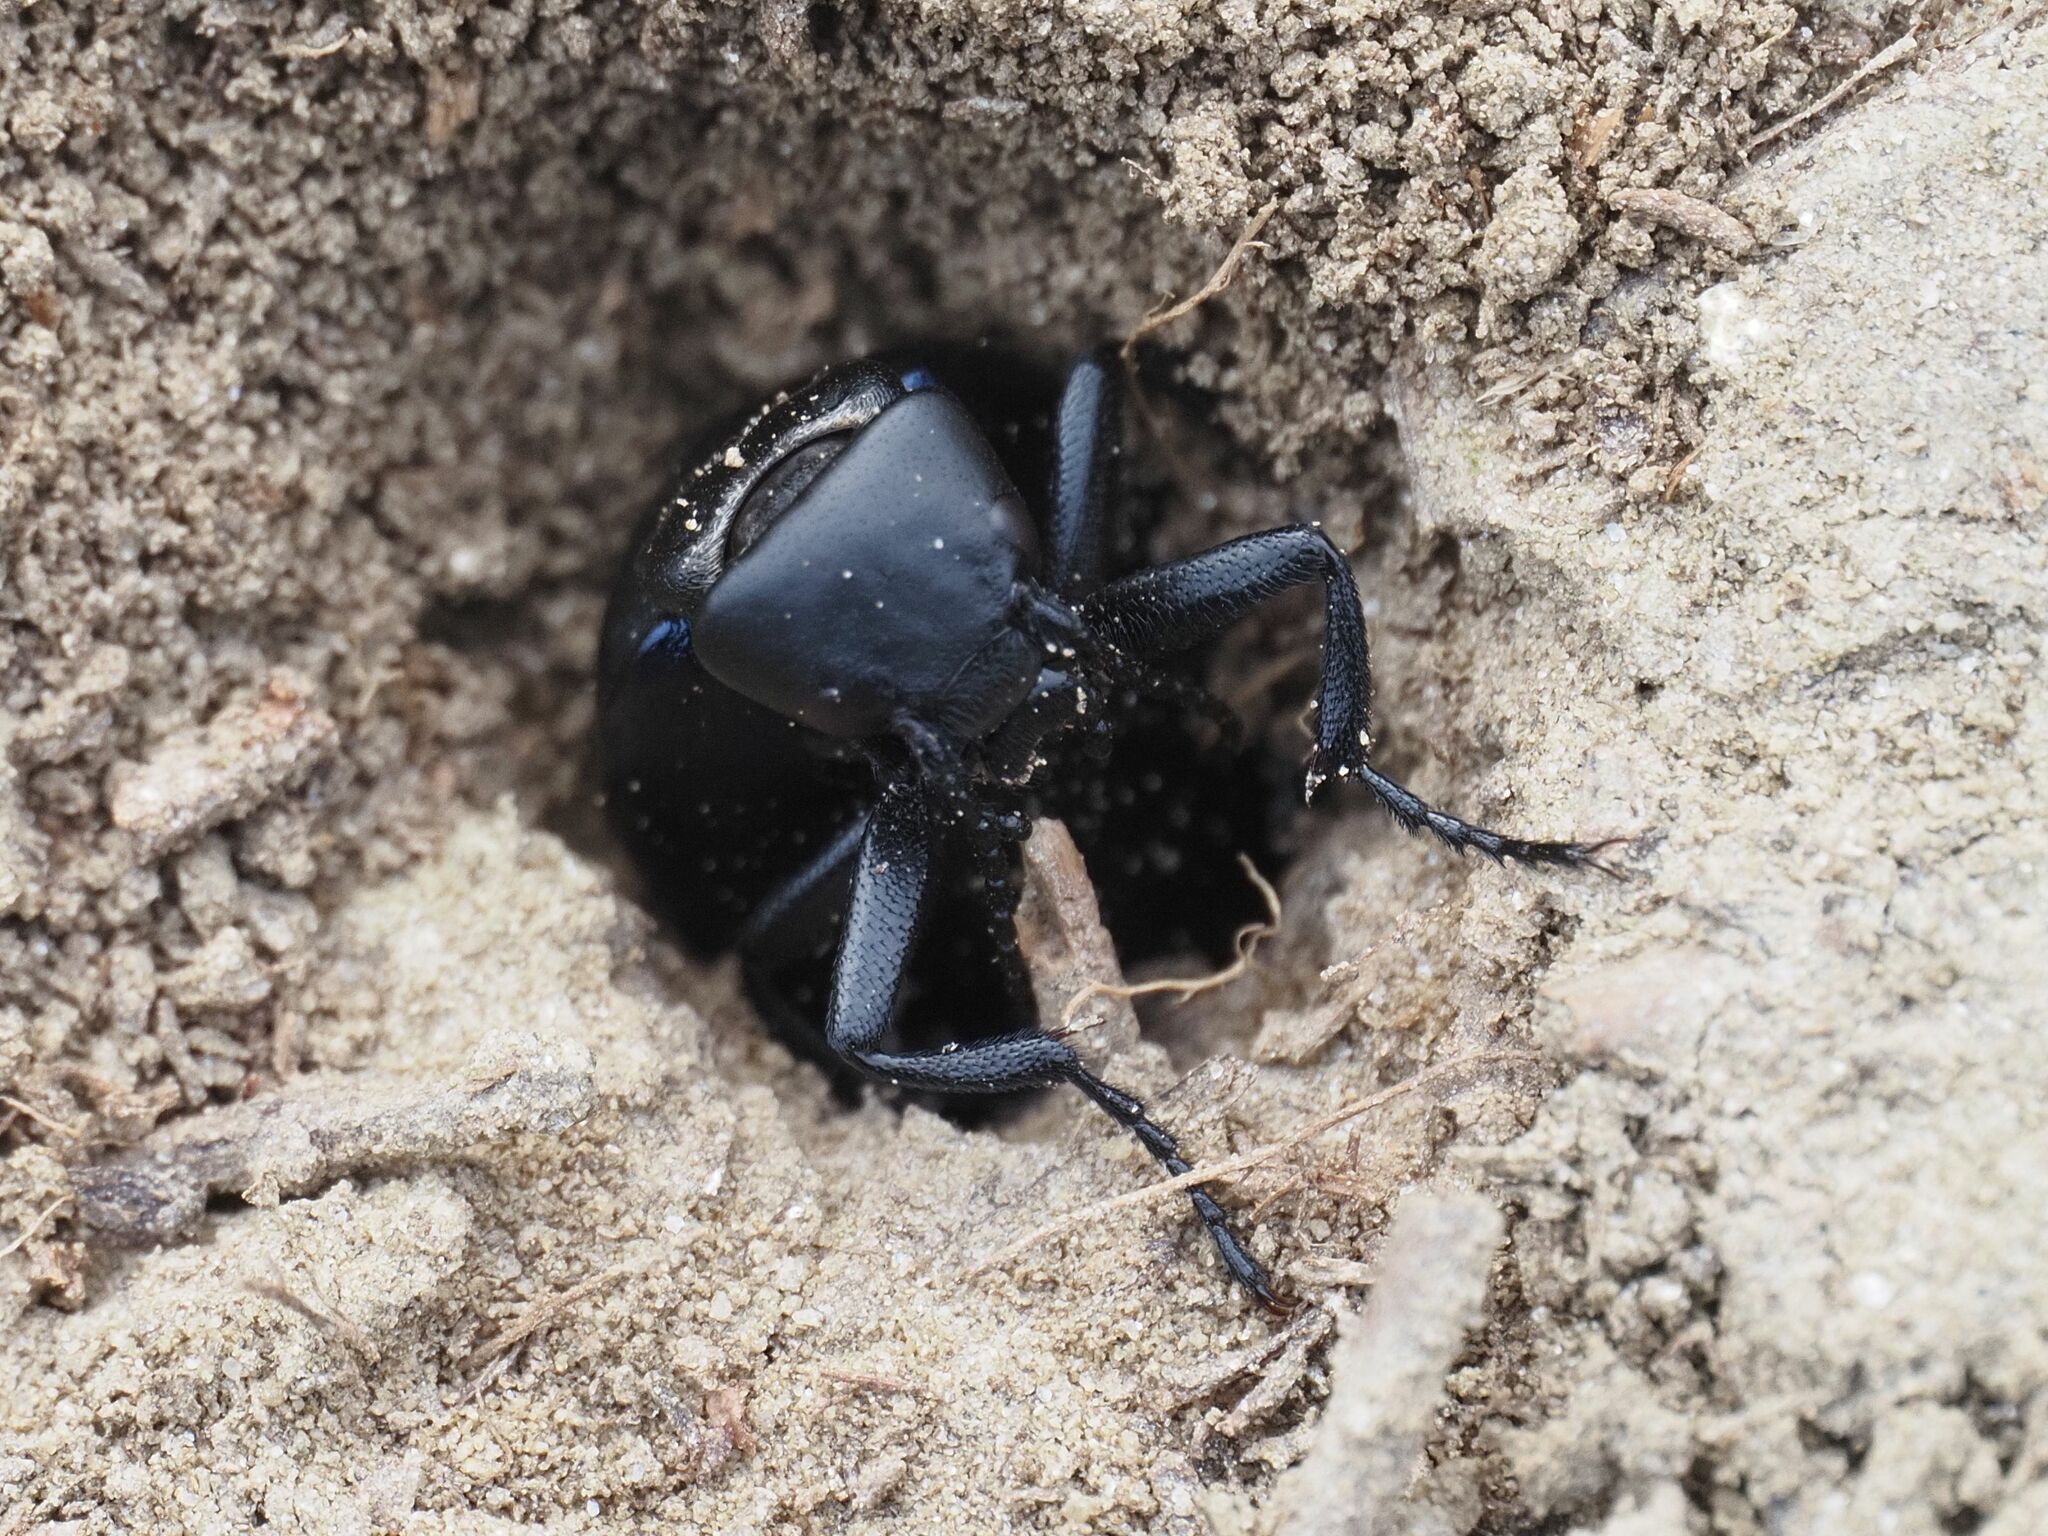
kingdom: Animalia
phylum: Arthropoda
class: Insecta
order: Coleoptera
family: Meloidae
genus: Meloe
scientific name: Meloe uralensis
